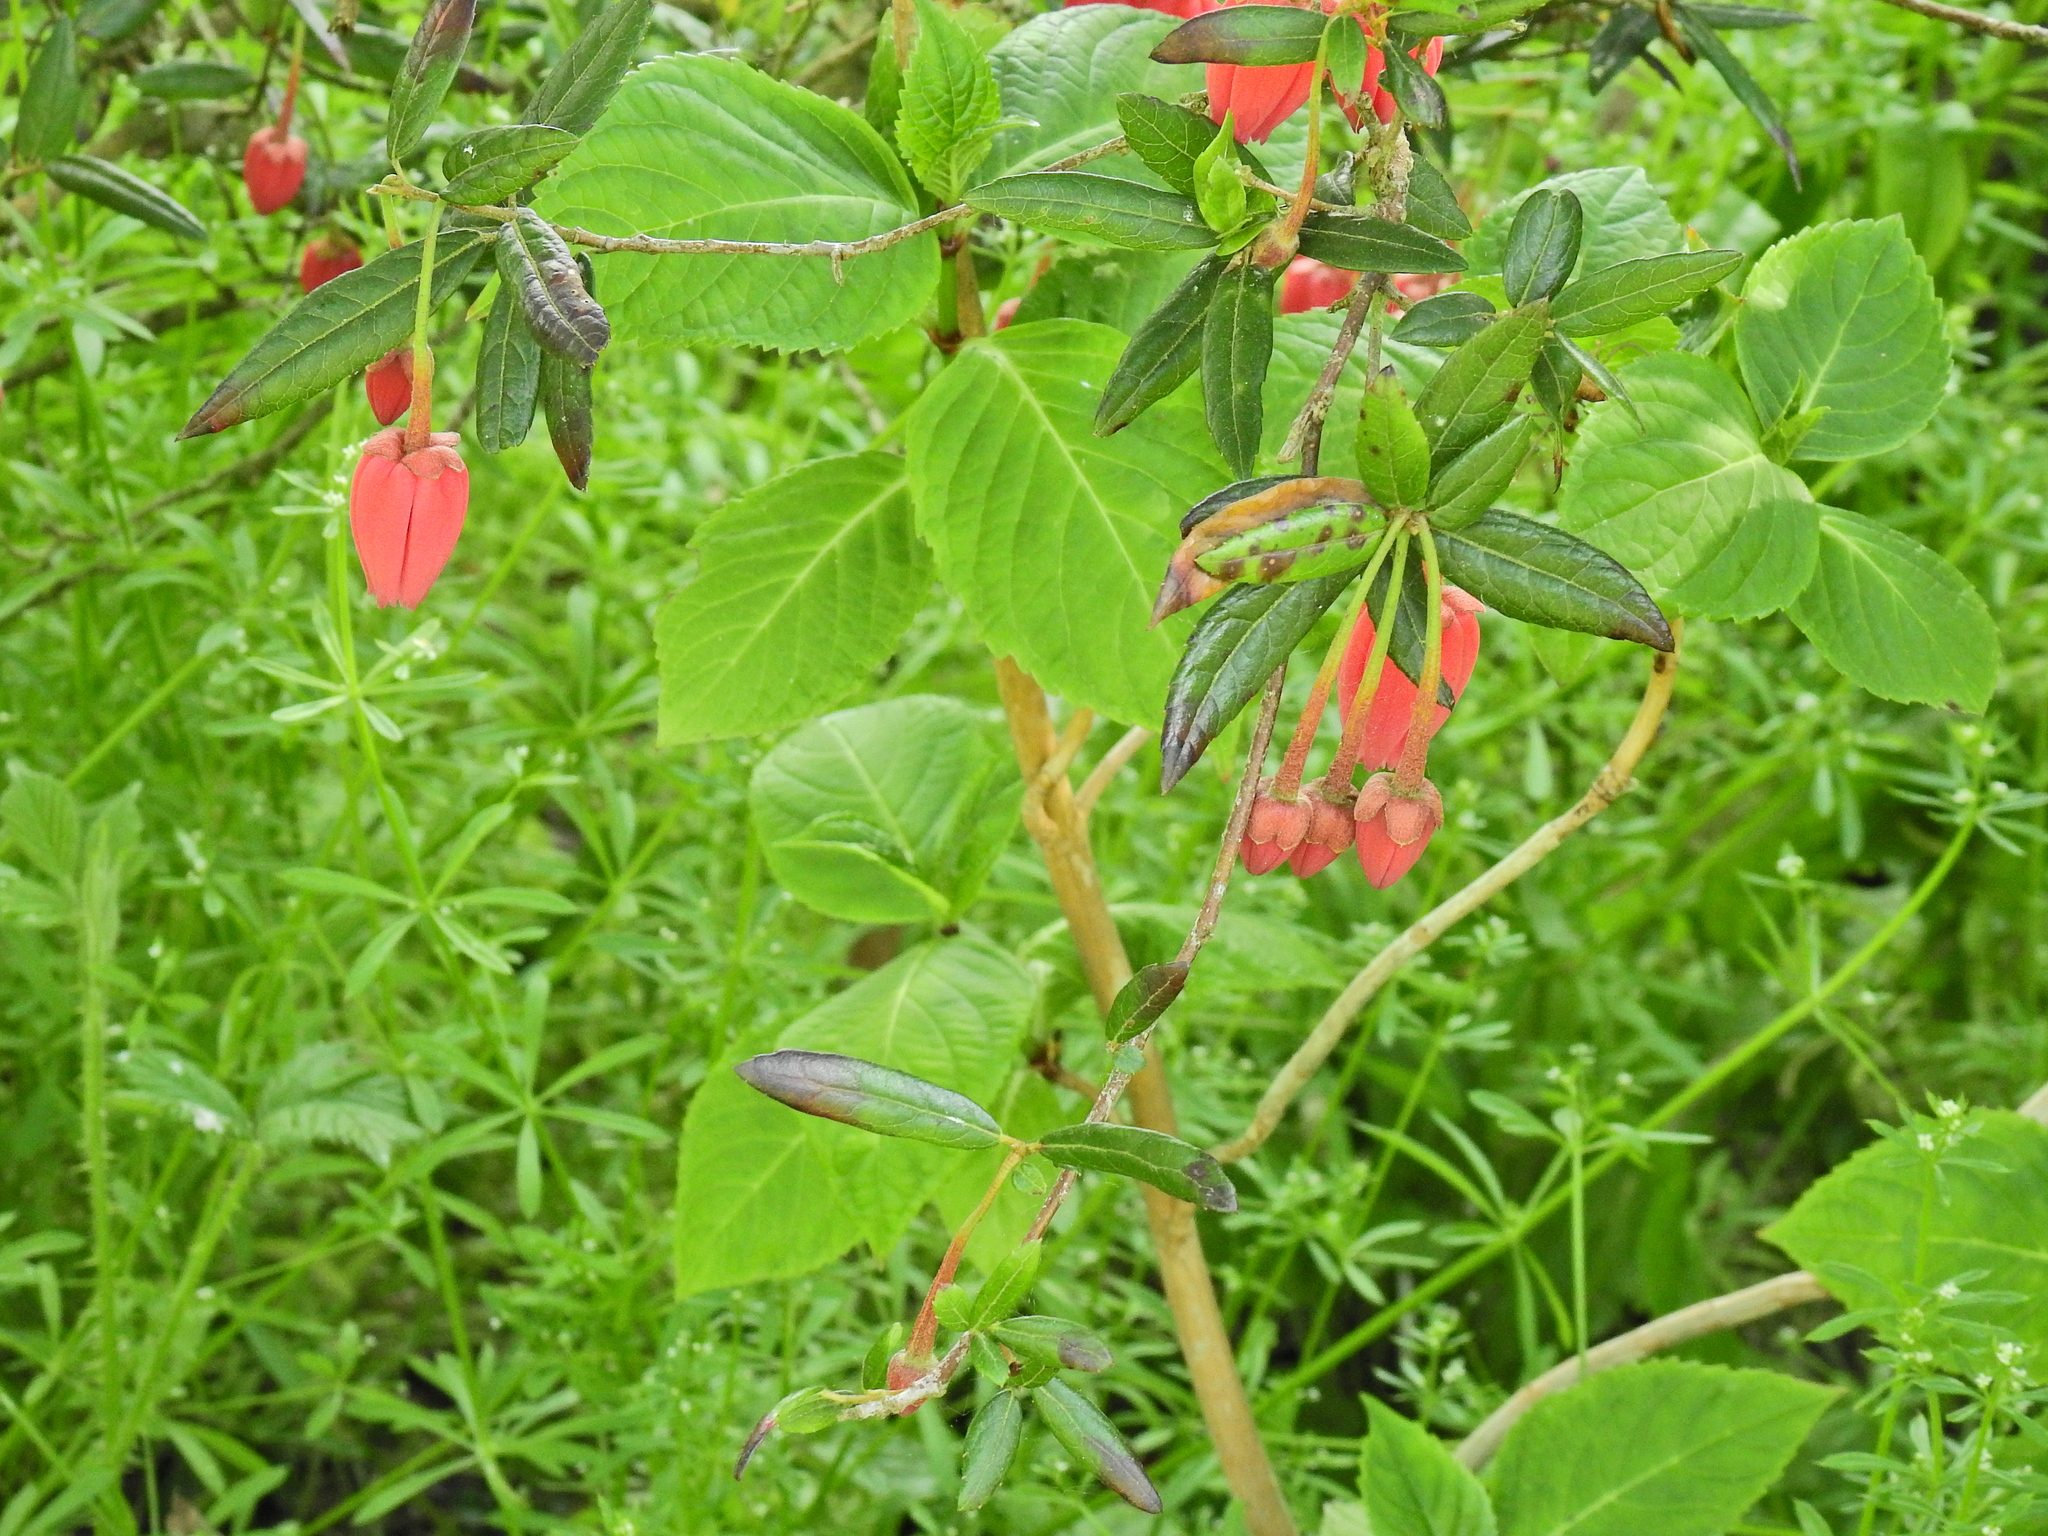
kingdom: Plantae
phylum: Tracheophyta
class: Magnoliopsida
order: Oxalidales
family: Elaeocarpaceae
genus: Crinodendron
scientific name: Crinodendron hookerianum
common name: Lanterntree
